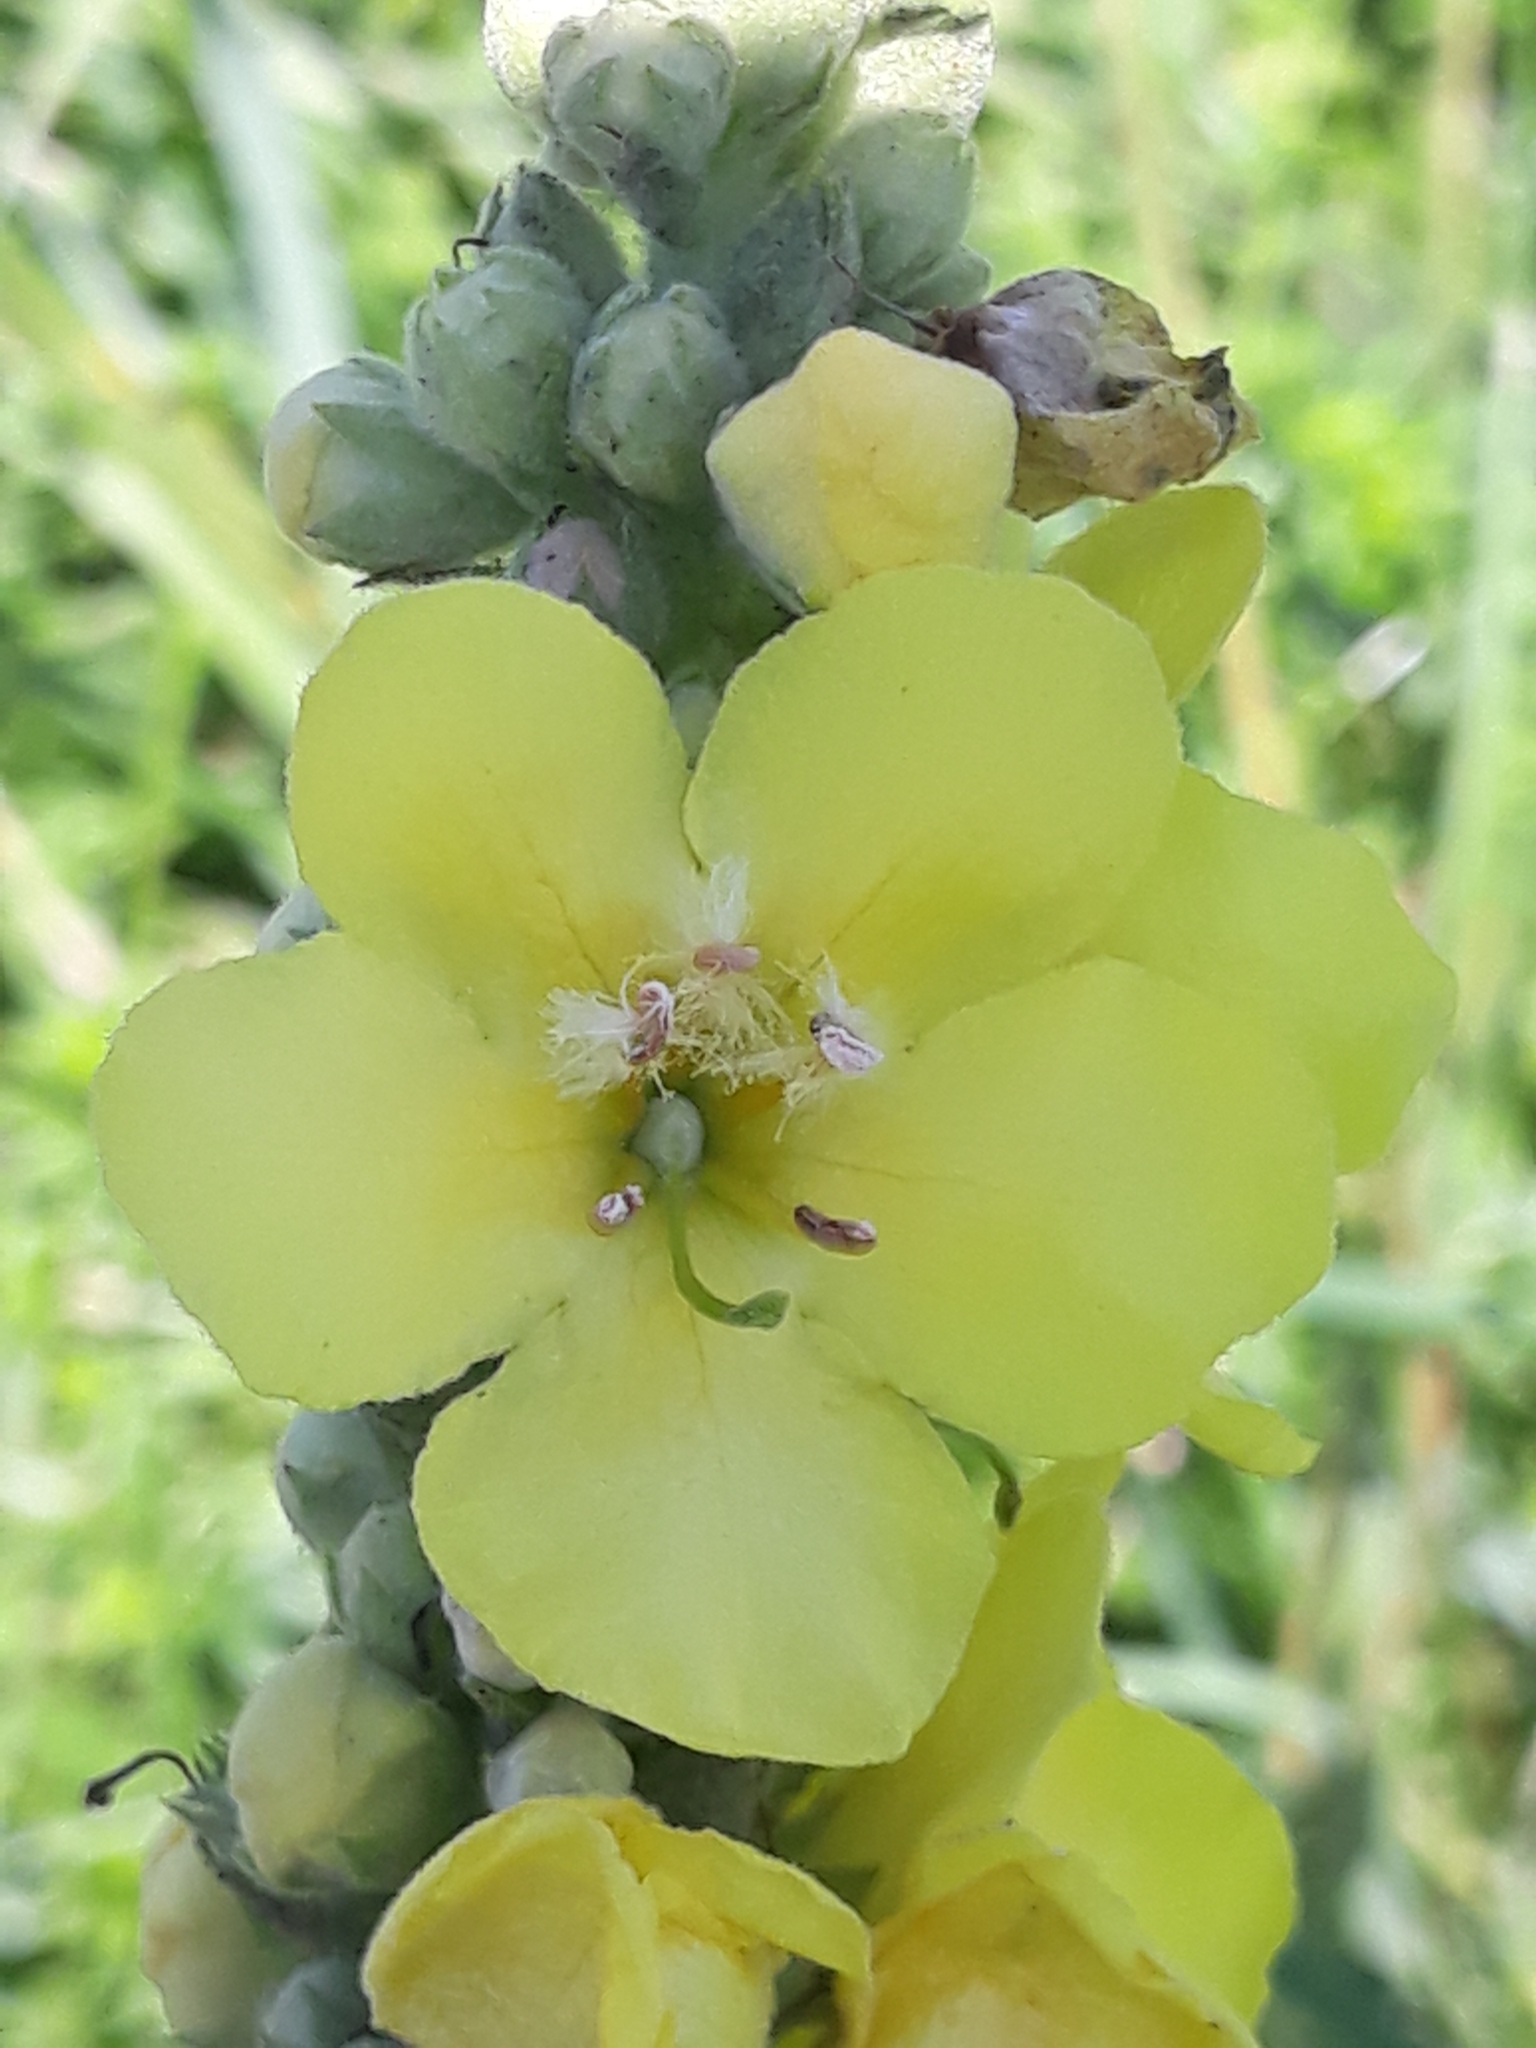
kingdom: Plantae
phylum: Tracheophyta
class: Magnoliopsida
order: Lamiales
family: Scrophulariaceae
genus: Verbascum
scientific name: Verbascum densiflorum
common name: Dense-flowered mullein
